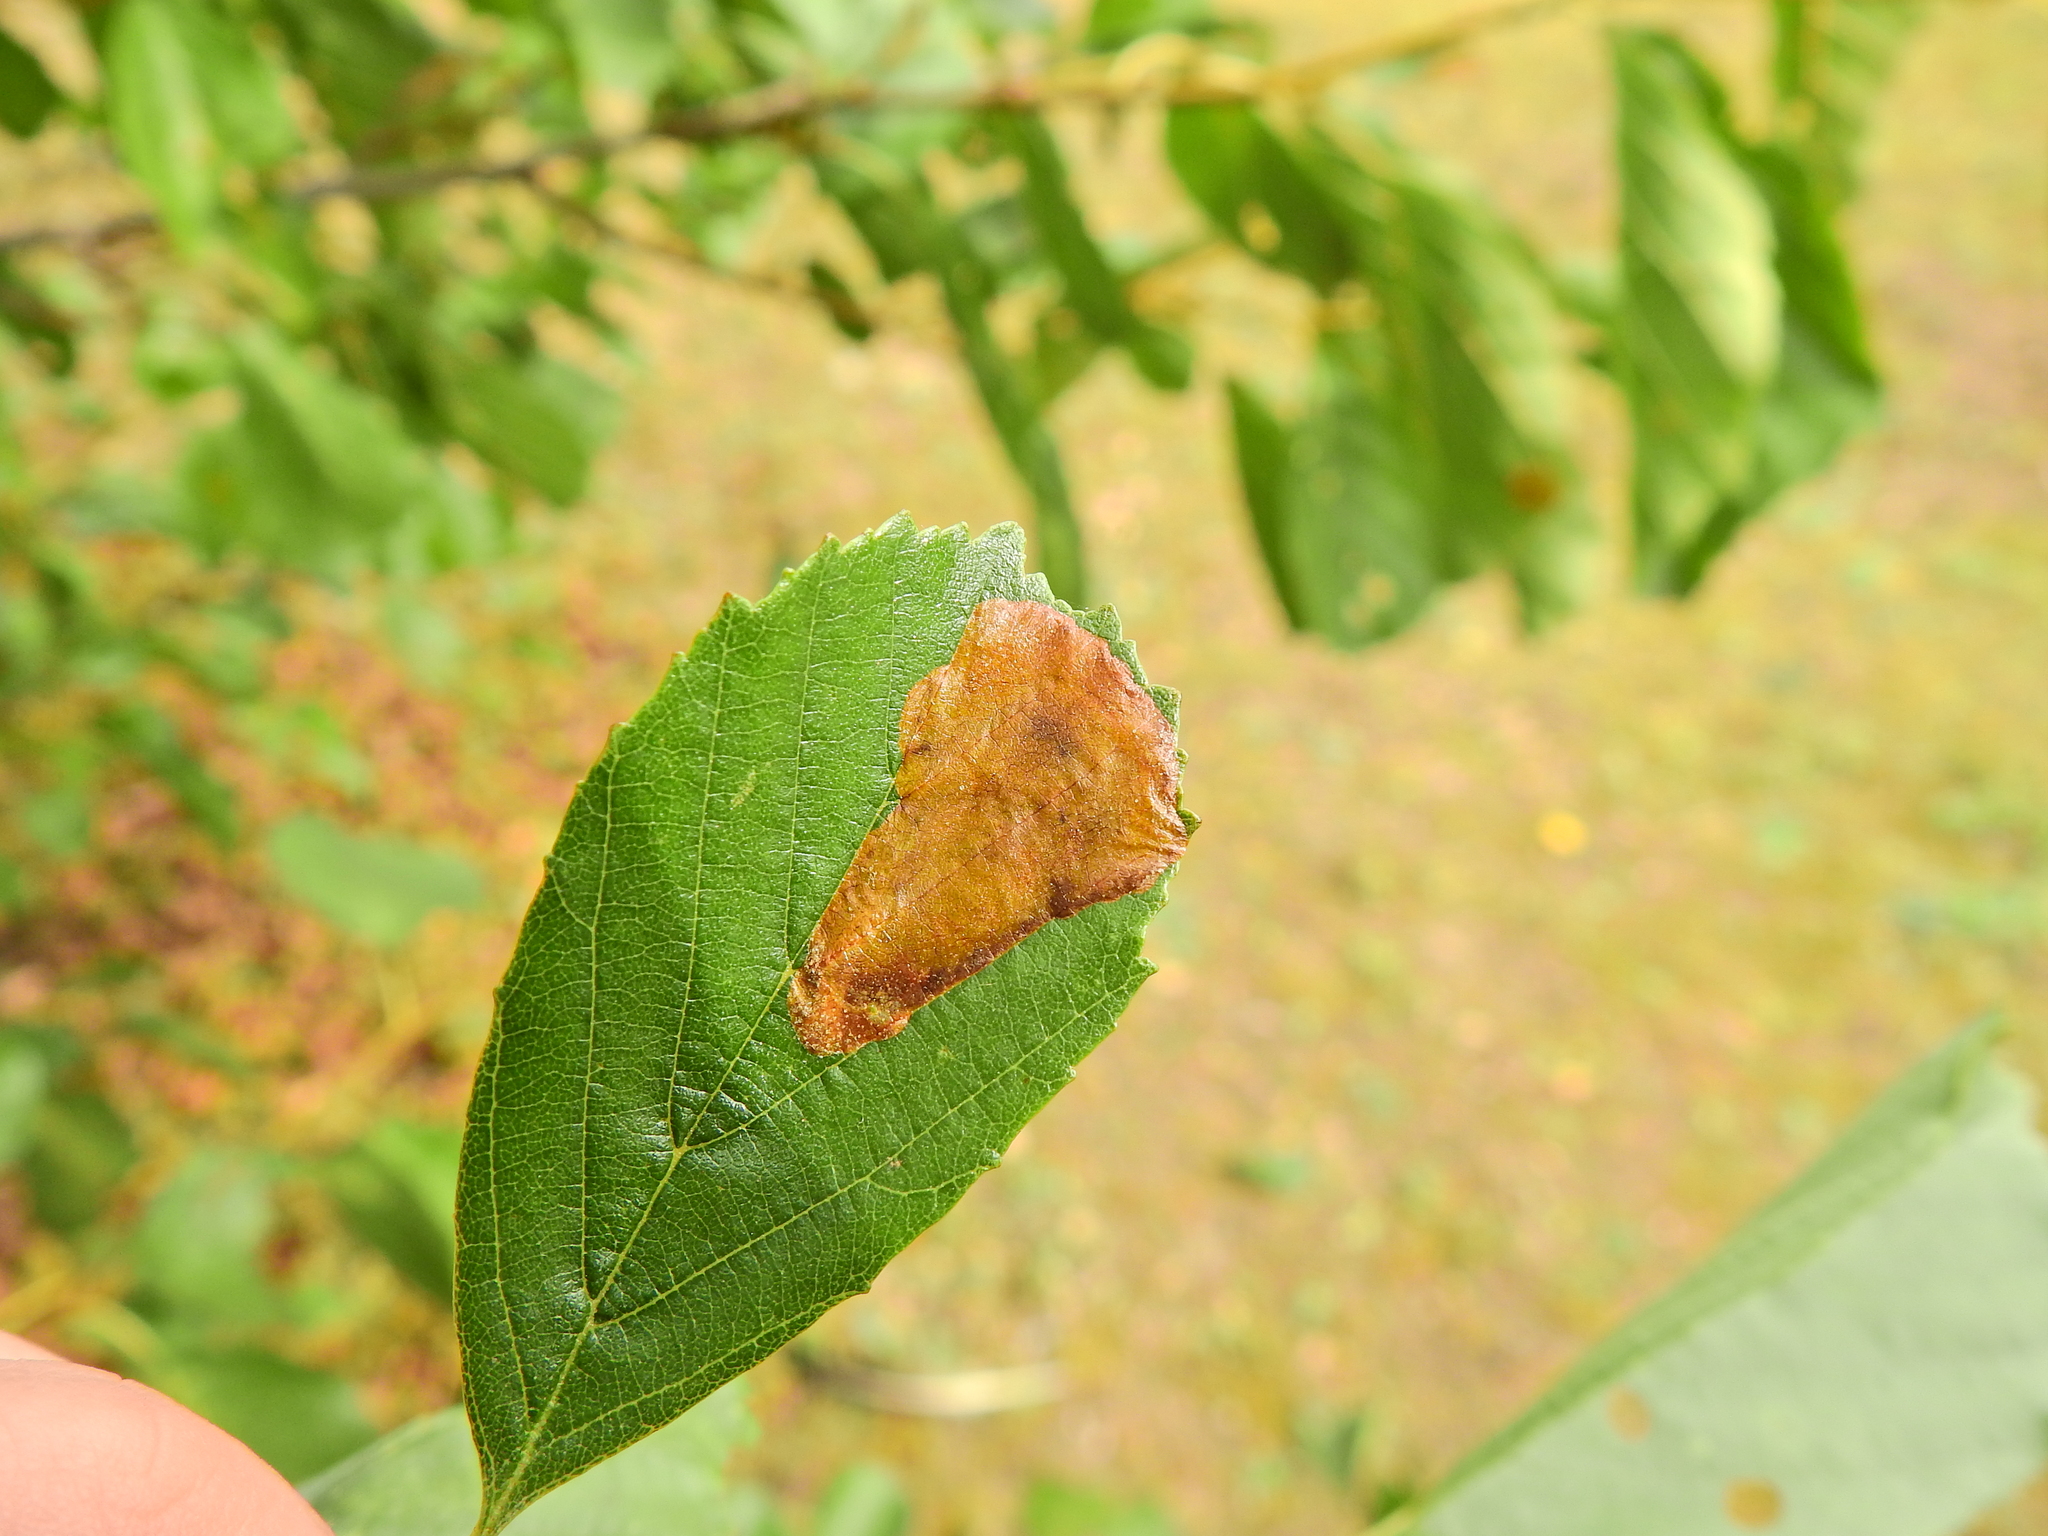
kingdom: Animalia
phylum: Arthropoda
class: Insecta
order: Hymenoptera
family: Tenthredinidae
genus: Heterarthrus
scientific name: Heterarthrus vagans
